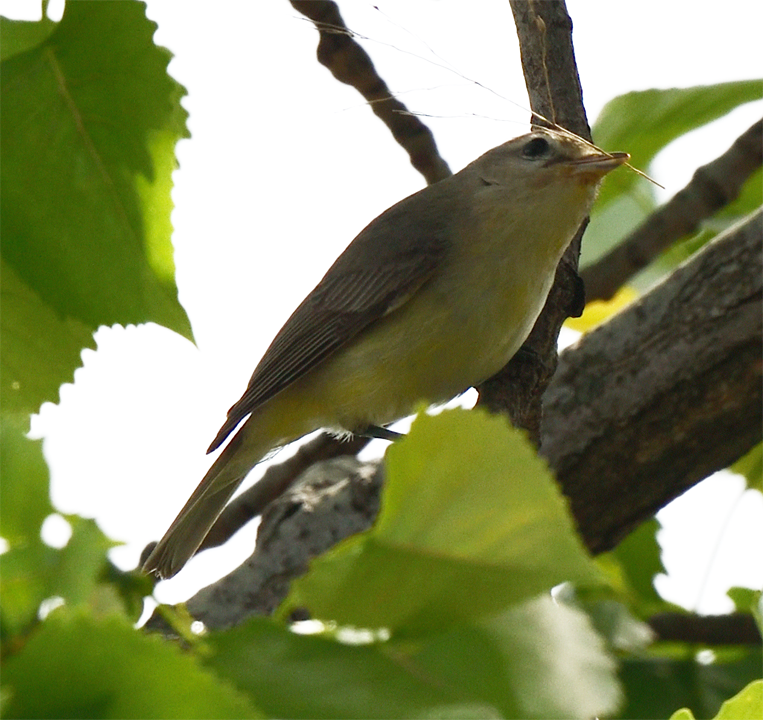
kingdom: Animalia
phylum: Chordata
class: Aves
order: Passeriformes
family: Vireonidae
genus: Vireo
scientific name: Vireo gilvus
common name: Warbling vireo
